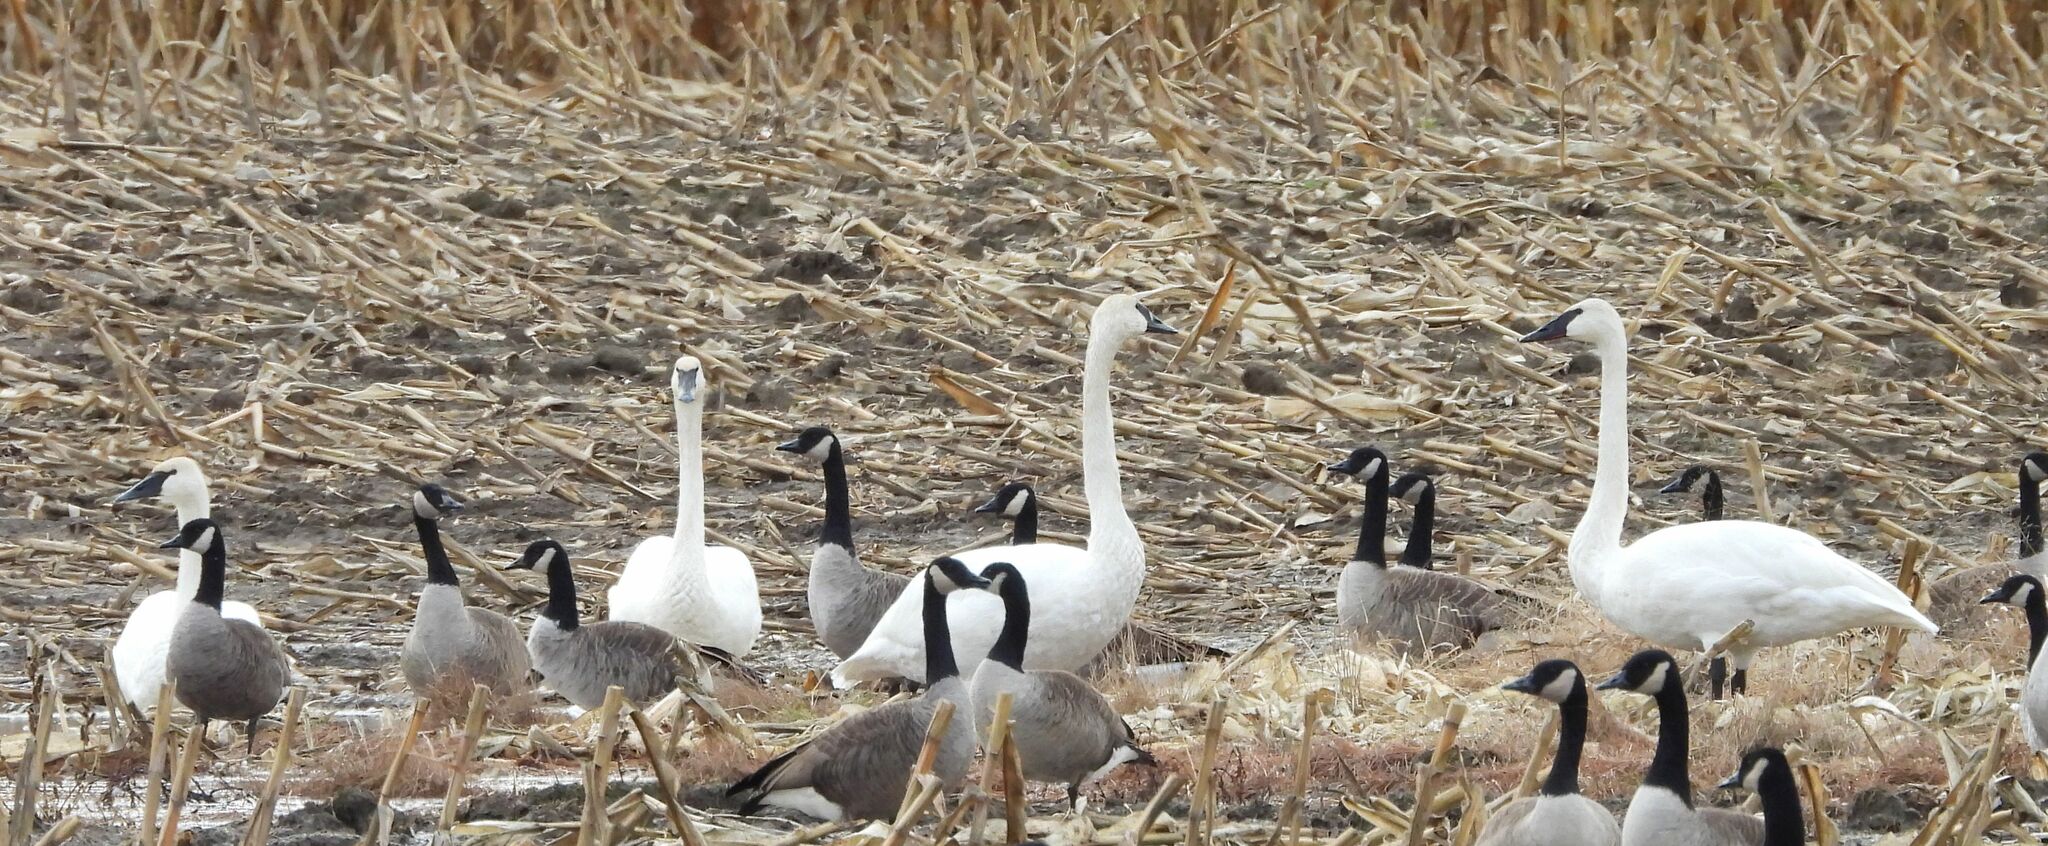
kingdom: Animalia
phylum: Chordata
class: Aves
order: Anseriformes
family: Anatidae
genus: Cygnus
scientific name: Cygnus buccinator
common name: Trumpeter swan
